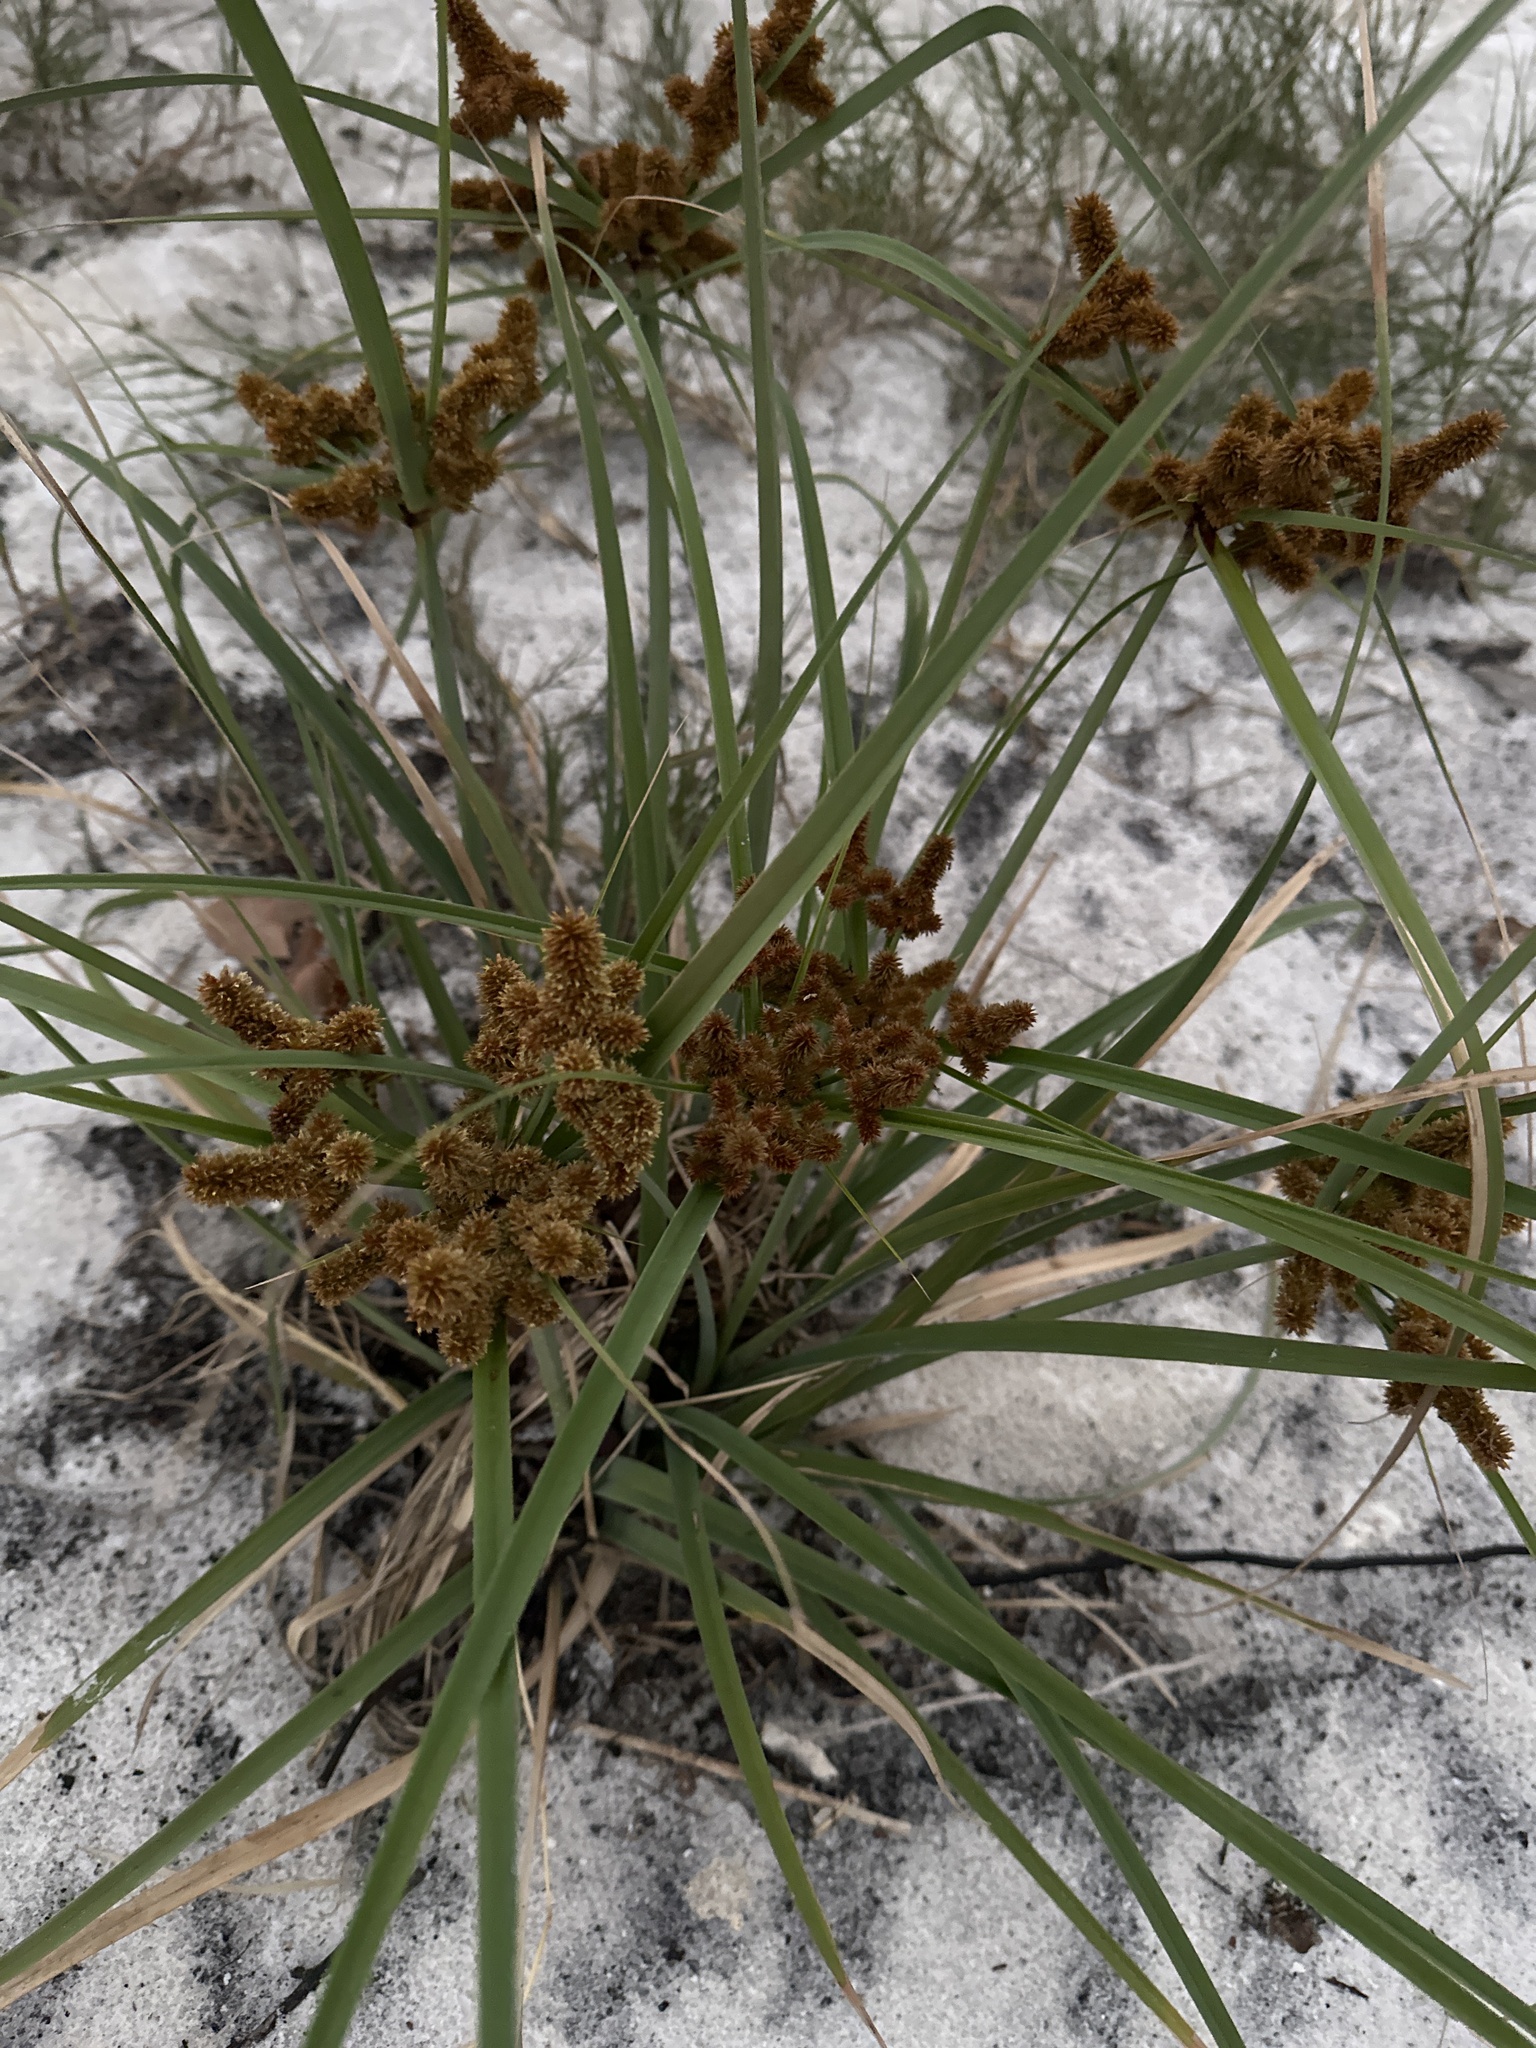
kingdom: Plantae
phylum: Tracheophyta
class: Liliopsida
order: Poales
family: Cyperaceae
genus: Cyperus
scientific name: Cyperus ligularis
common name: Swamp flat sedge
